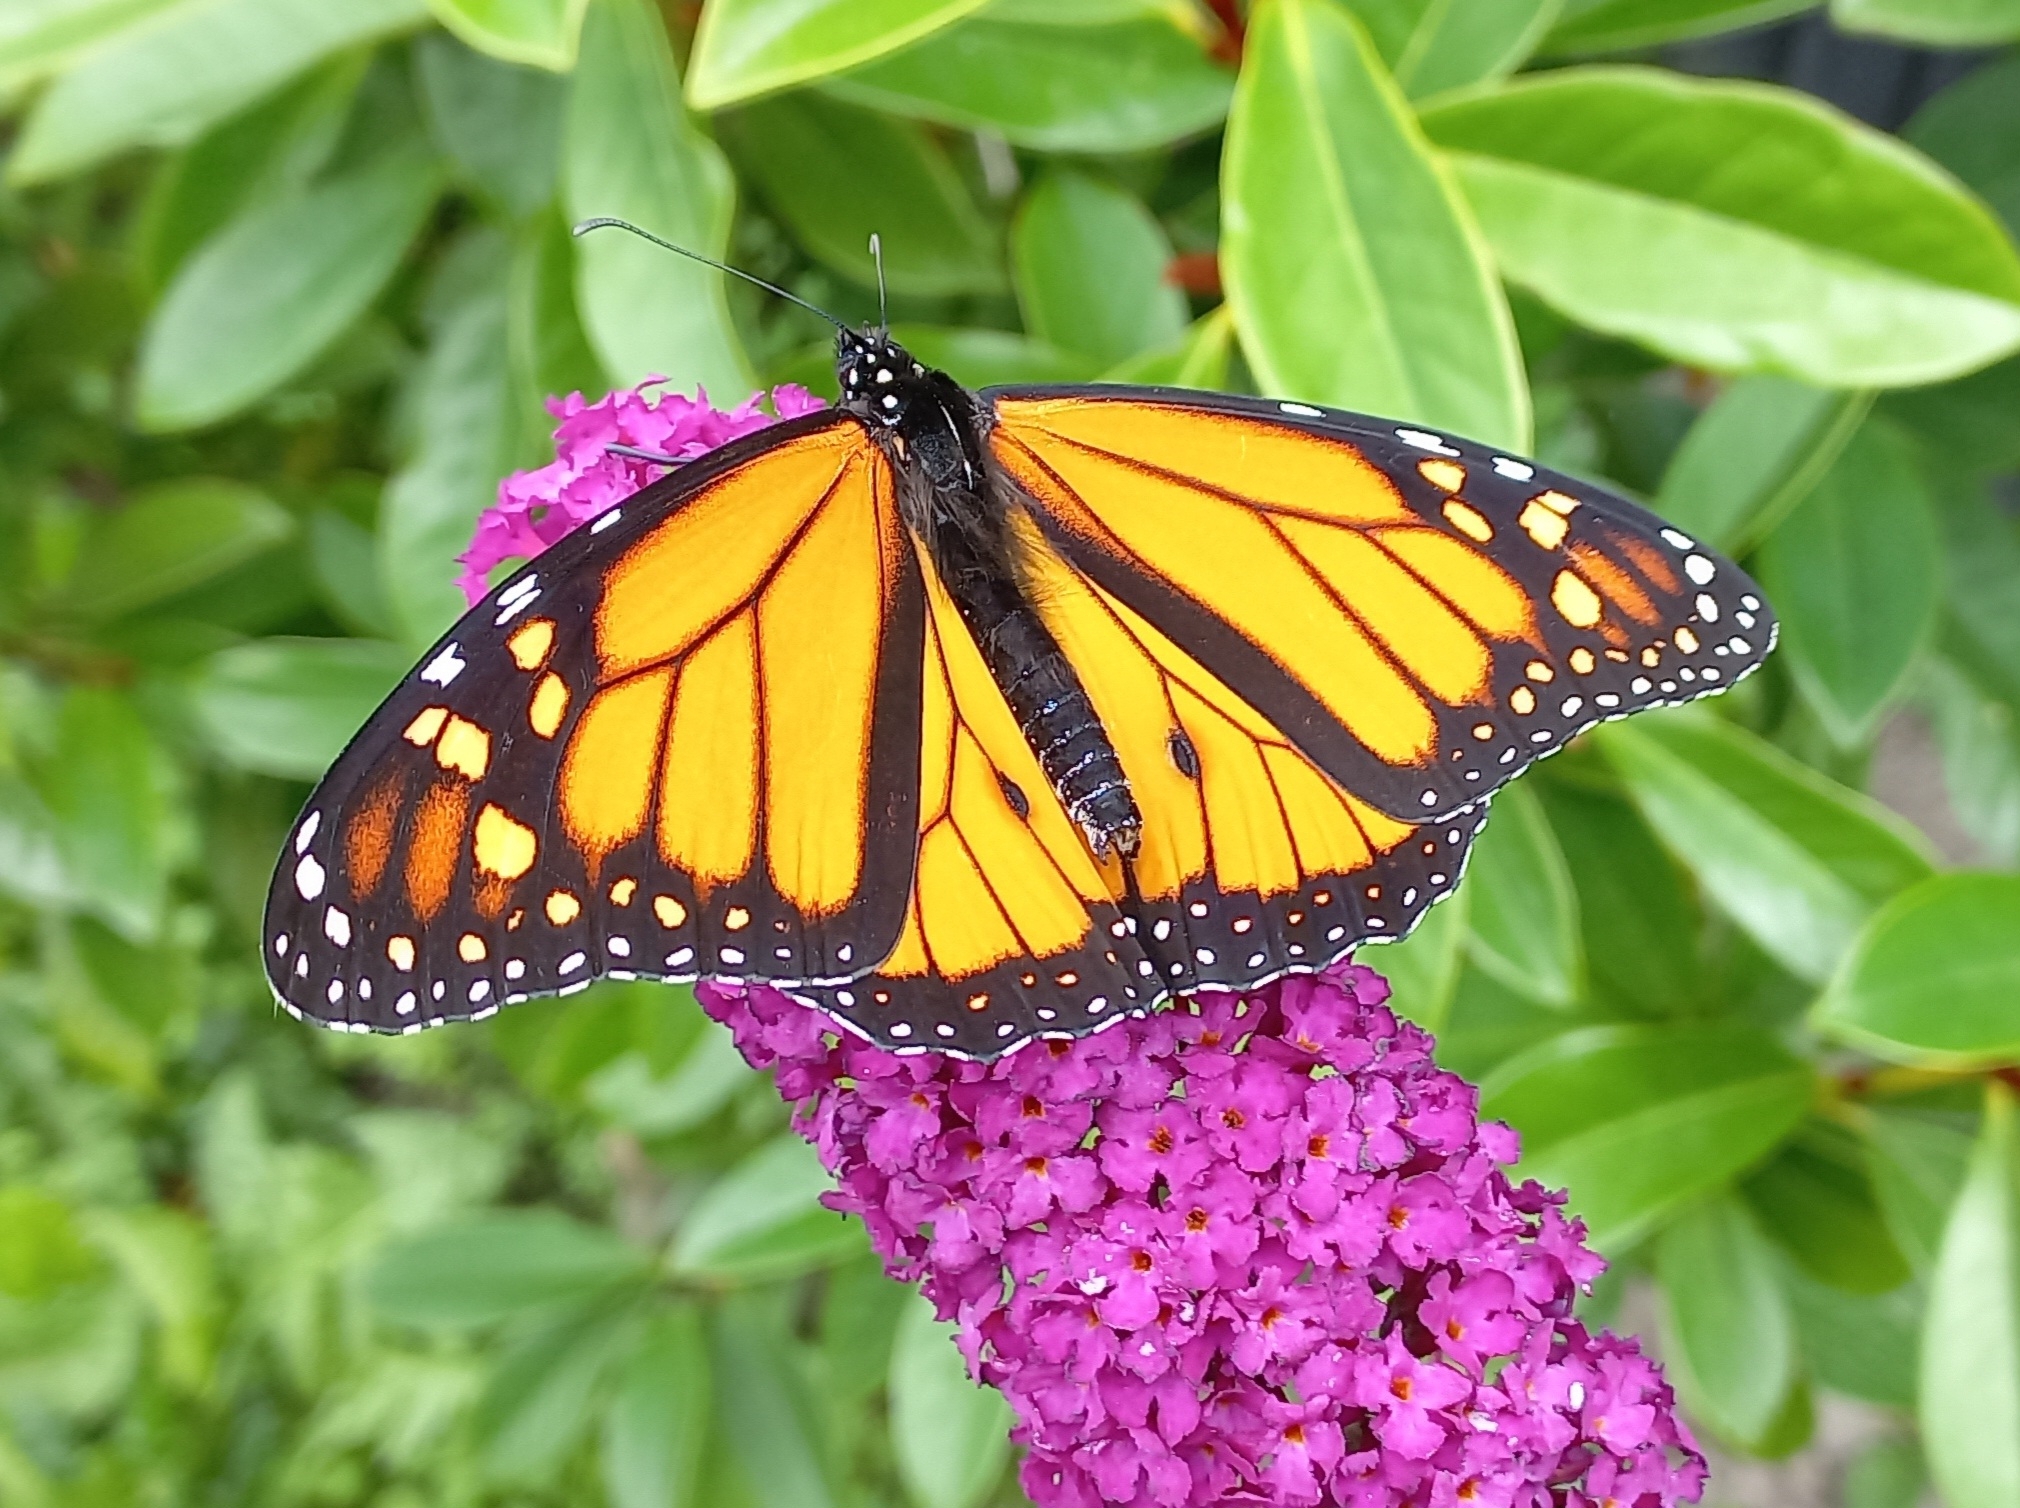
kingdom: Animalia
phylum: Arthropoda
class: Insecta
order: Lepidoptera
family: Nymphalidae
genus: Danaus
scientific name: Danaus plexippus
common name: Monarch
